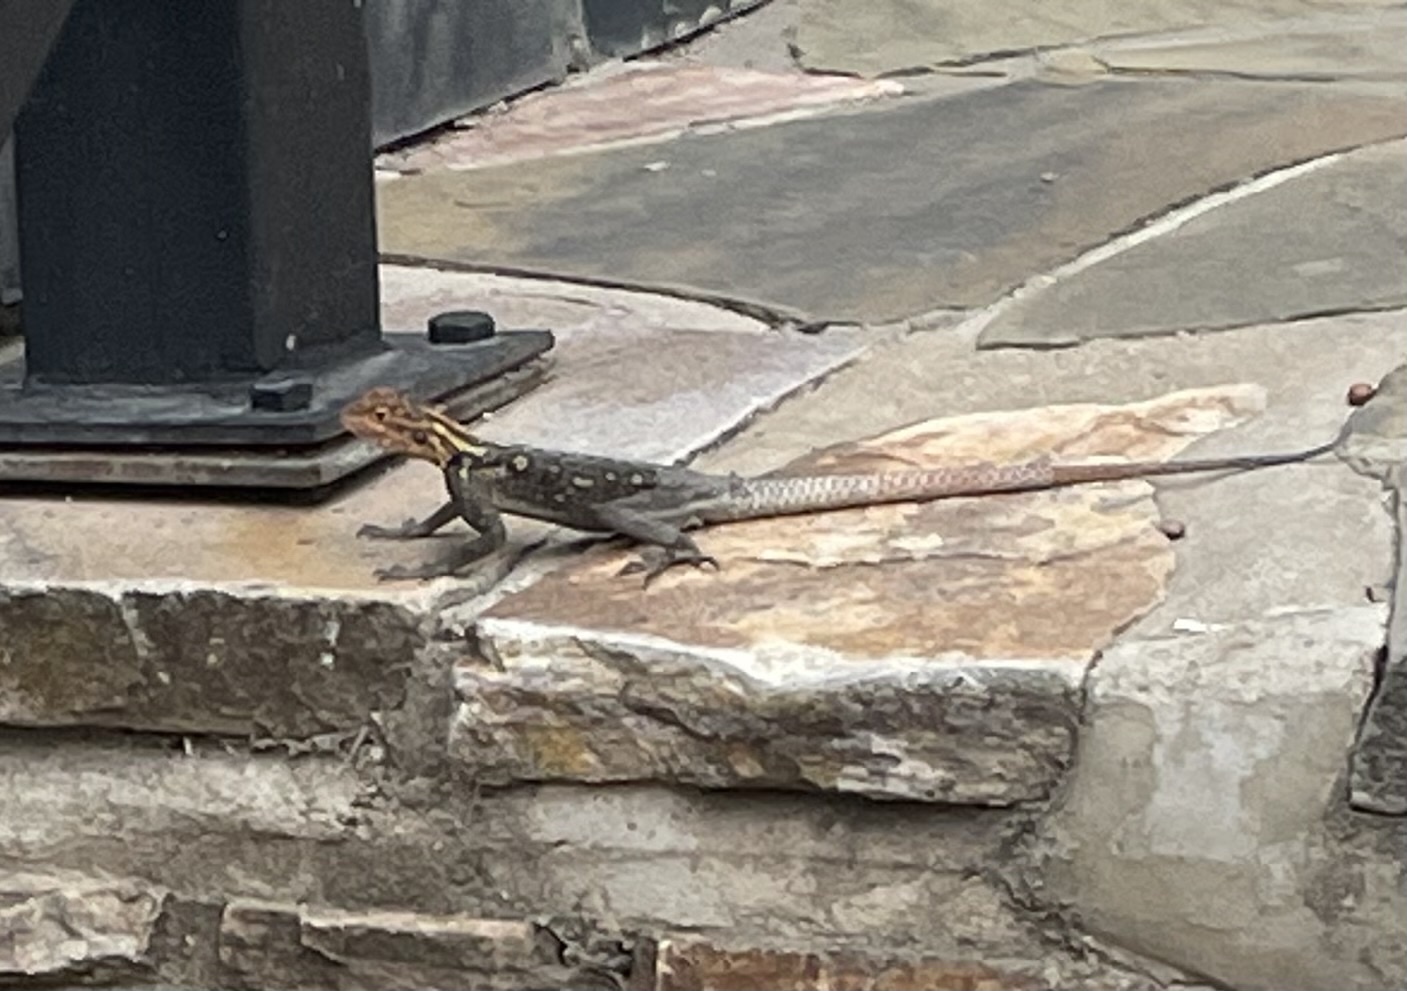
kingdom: Animalia
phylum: Chordata
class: Squamata
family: Agamidae
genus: Agama
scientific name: Agama planiceps
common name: Namib rock agama
